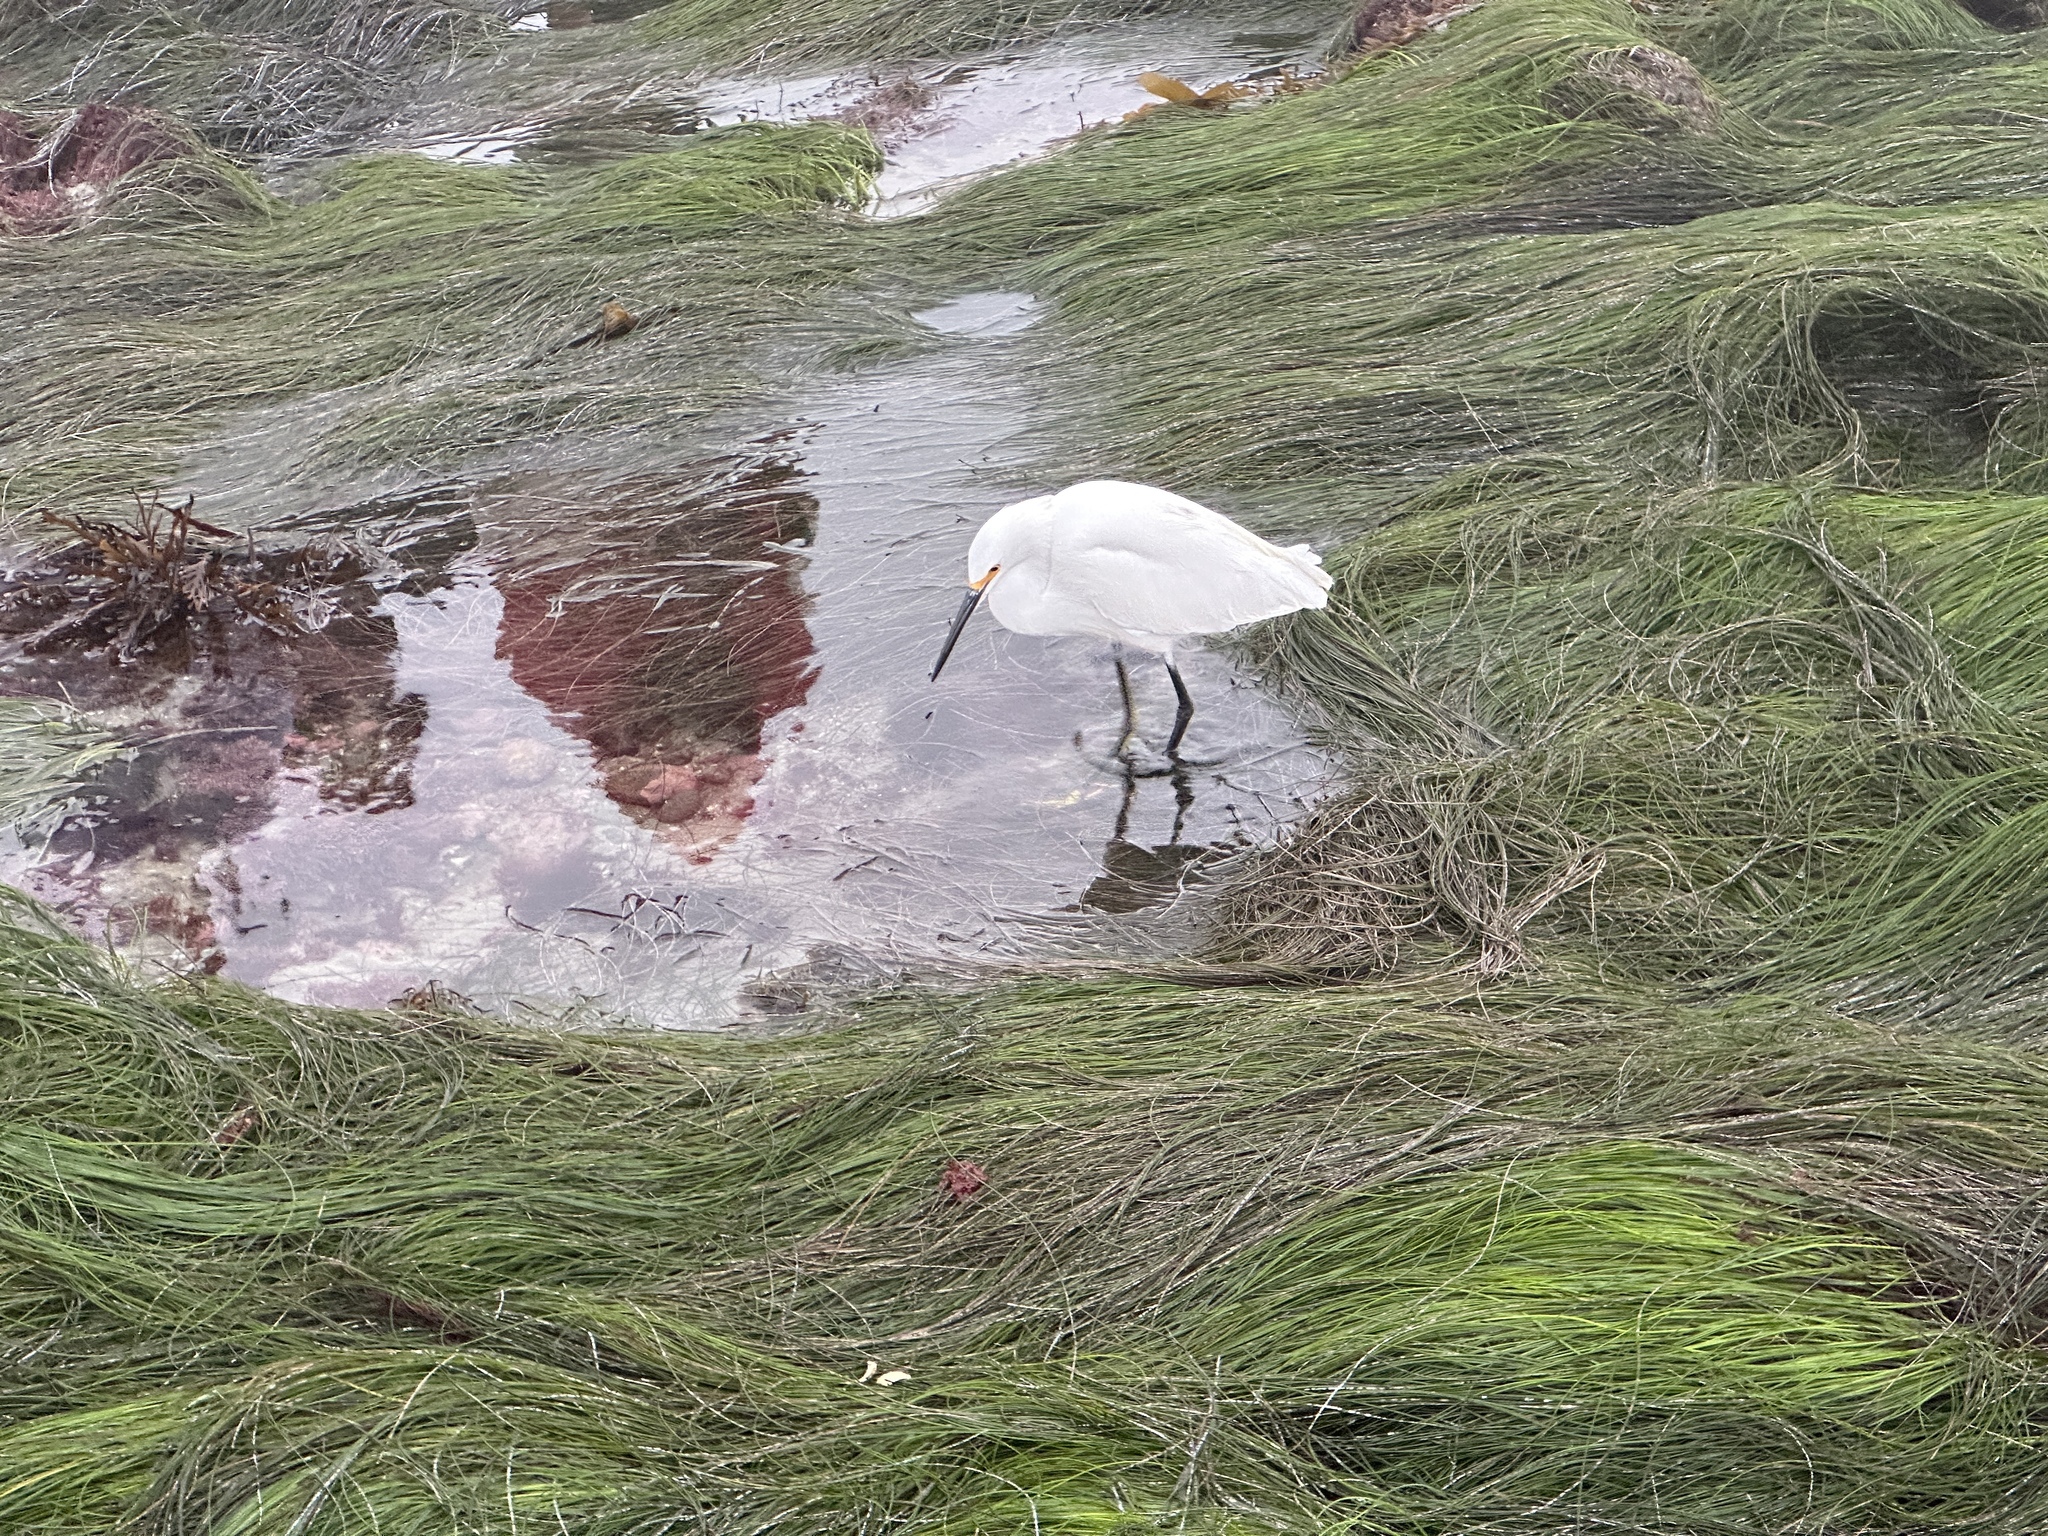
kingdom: Animalia
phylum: Chordata
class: Aves
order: Pelecaniformes
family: Ardeidae
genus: Egretta
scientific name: Egretta thula
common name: Snowy egret
